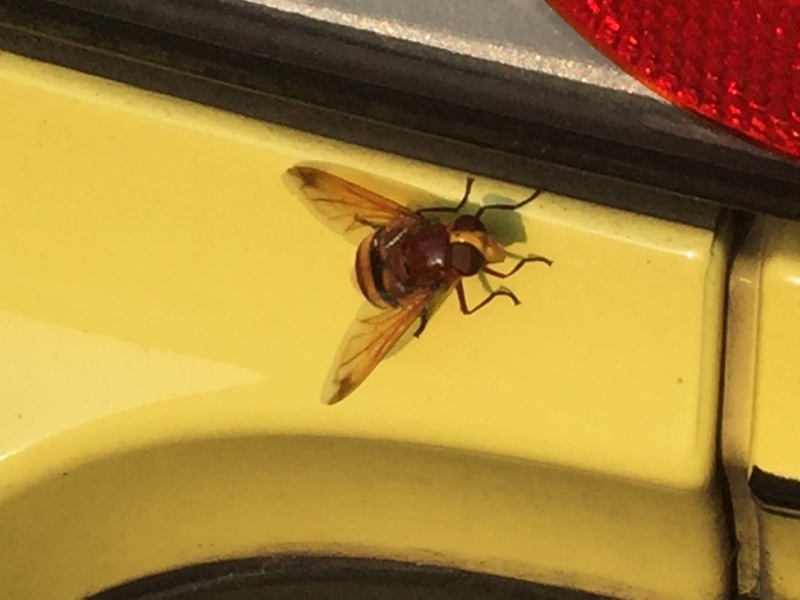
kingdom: Animalia
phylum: Arthropoda
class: Insecta
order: Diptera
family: Syrphidae
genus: Volucella
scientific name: Volucella zonaria
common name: Hornet hoverfly
